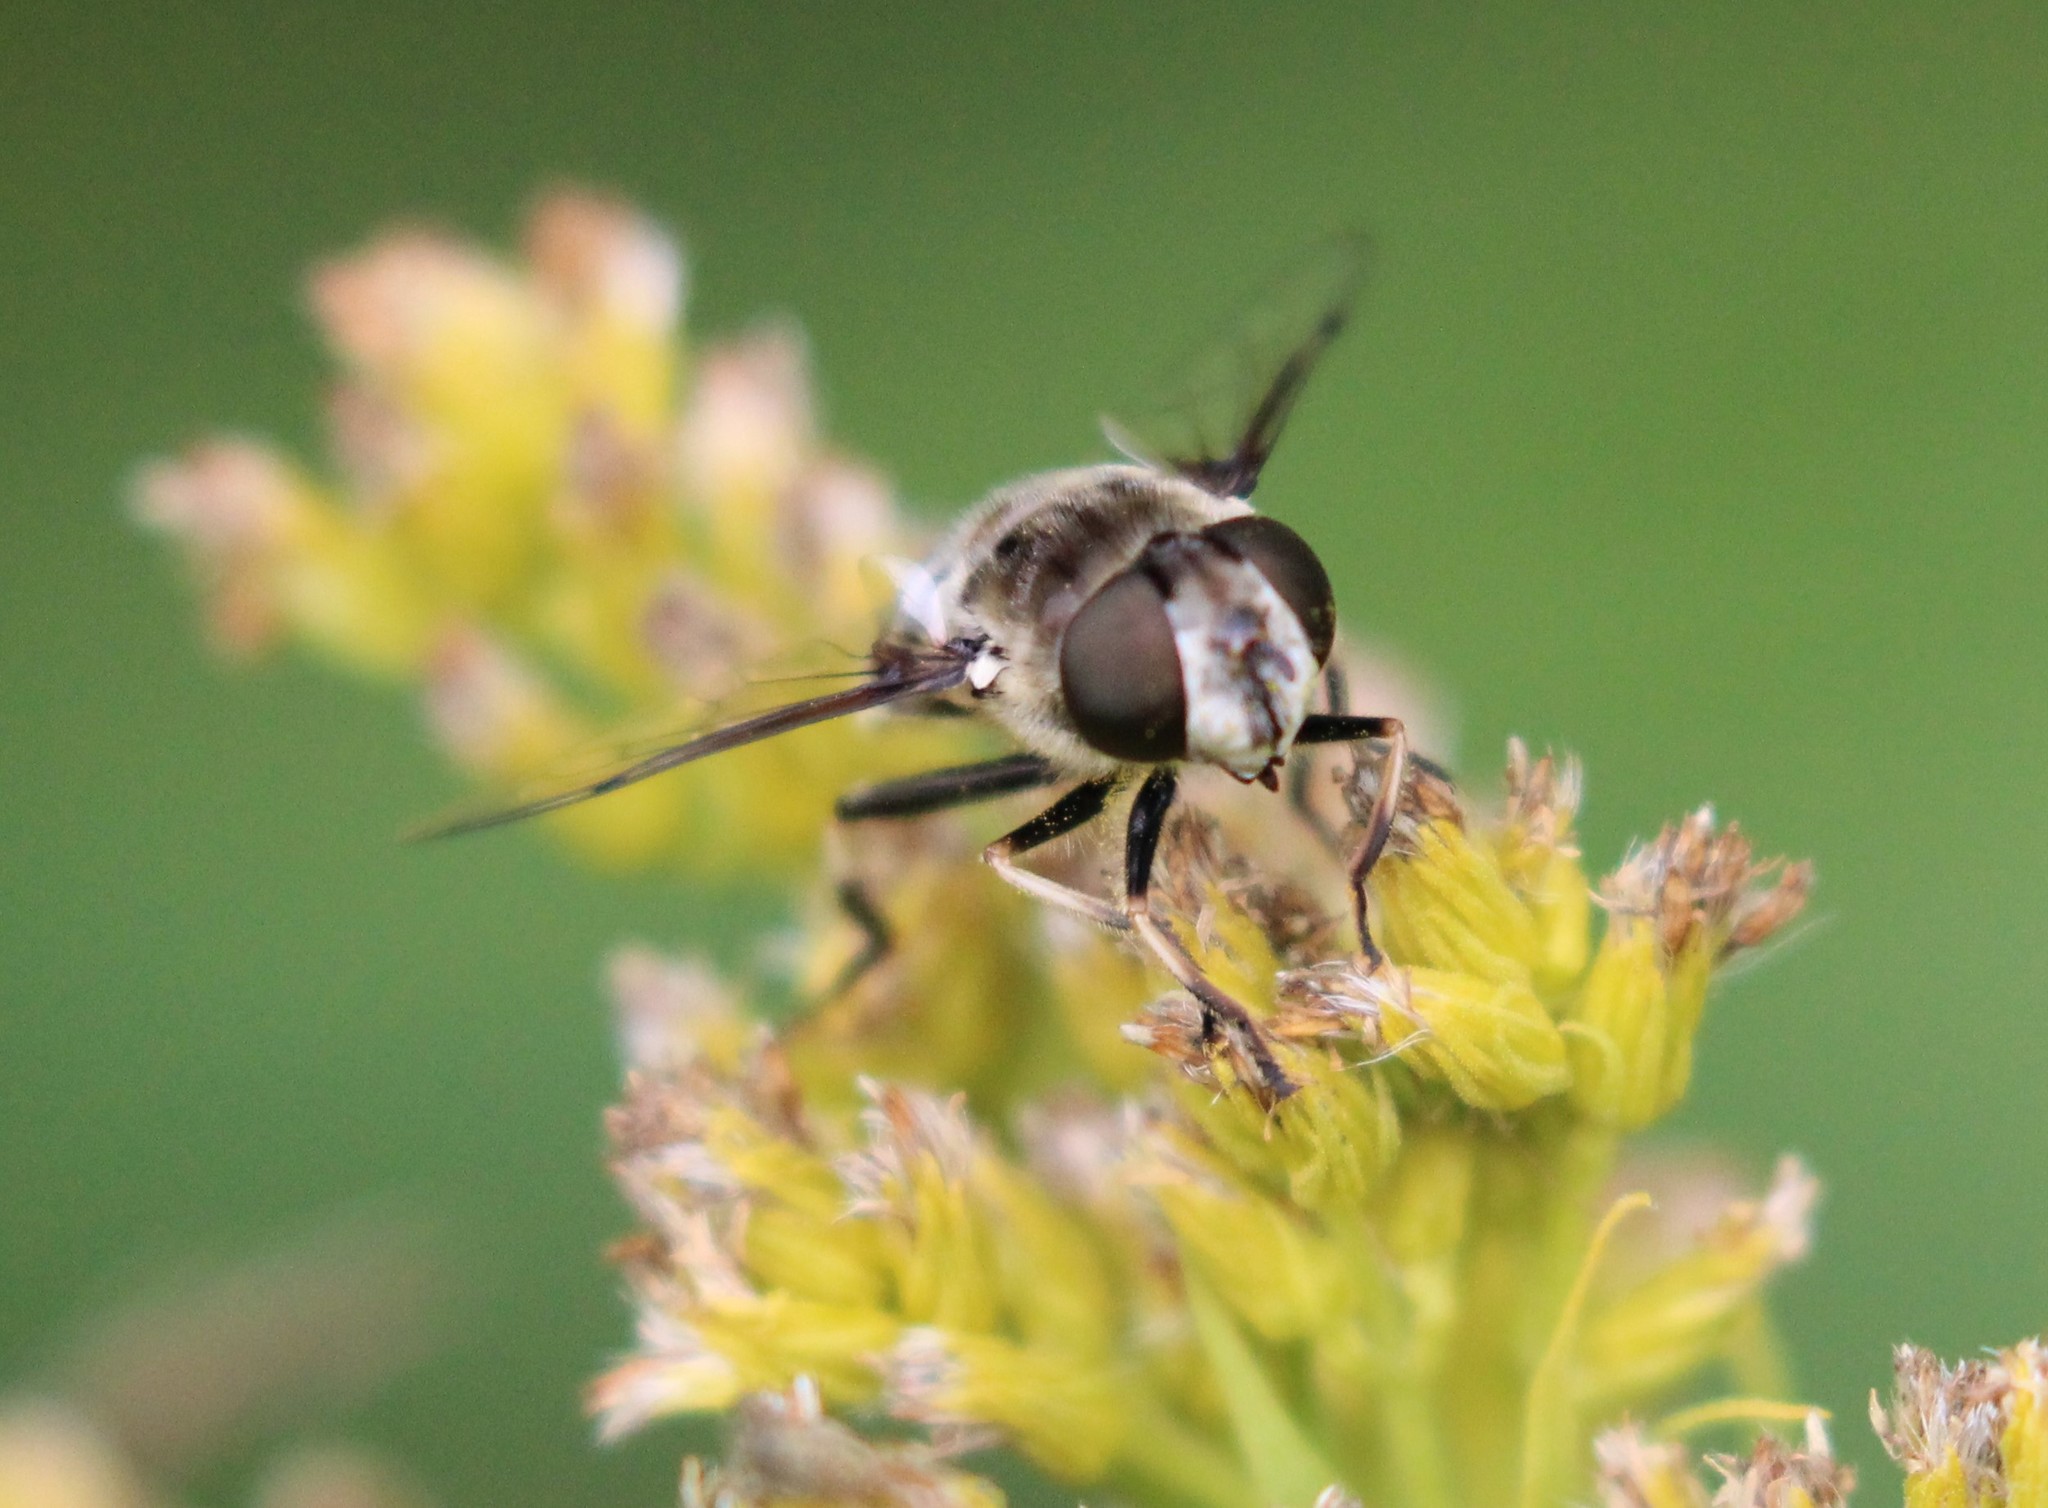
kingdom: Animalia
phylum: Arthropoda
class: Insecta
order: Diptera
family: Syrphidae
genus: Eristalis
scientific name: Eristalis dimidiata
